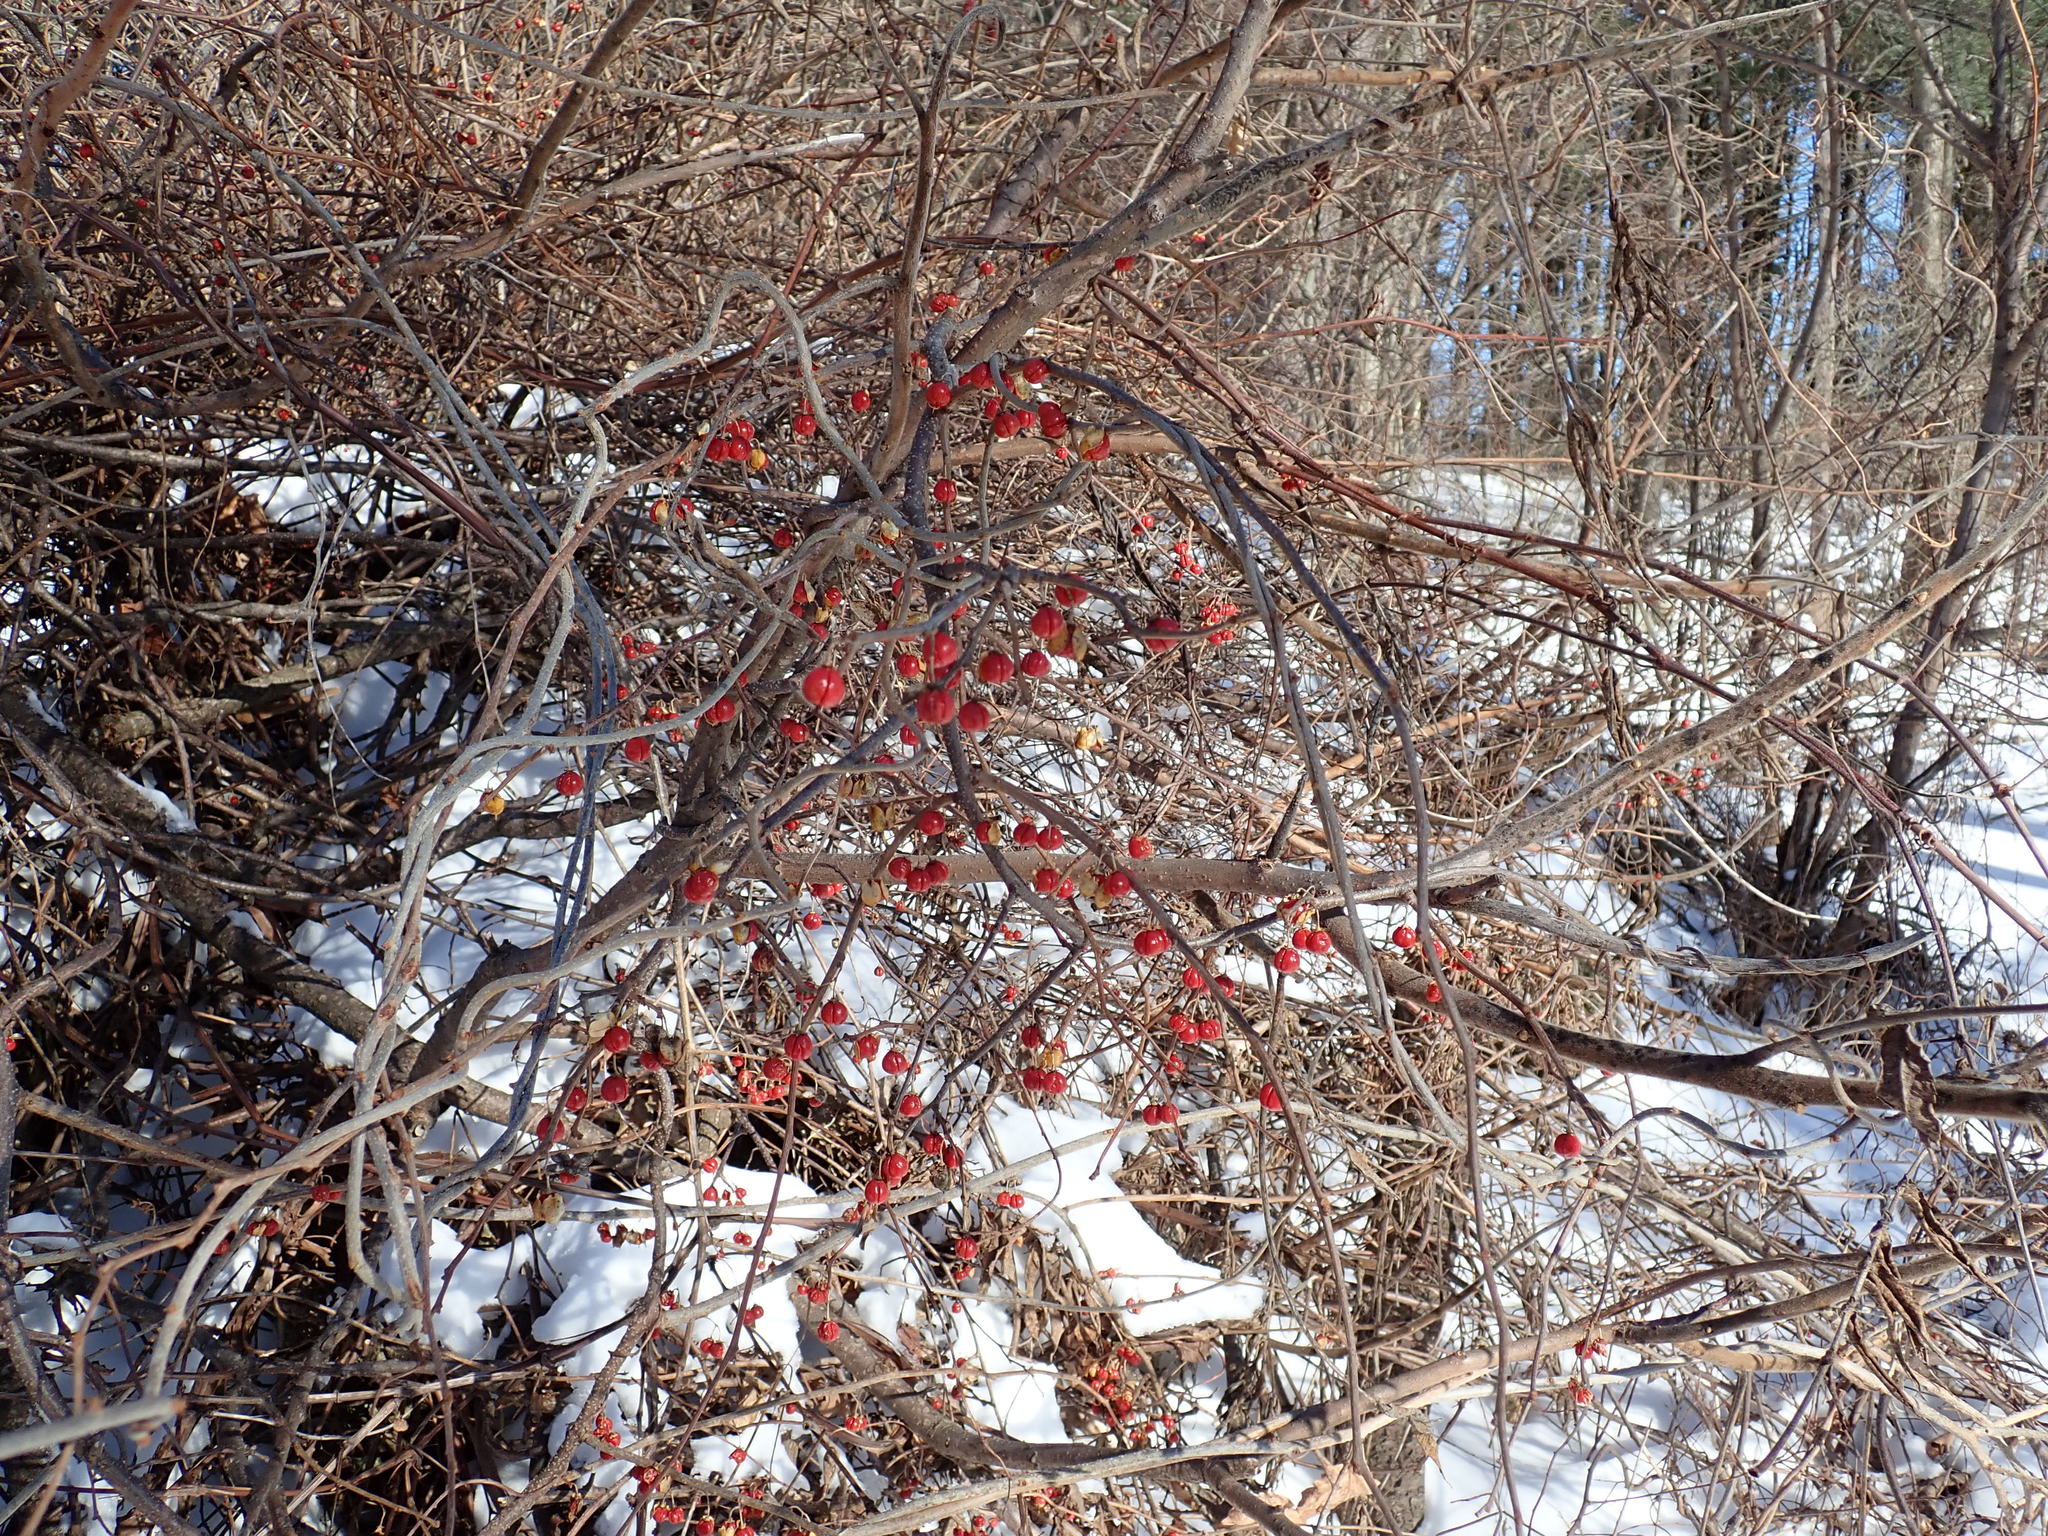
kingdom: Plantae
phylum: Tracheophyta
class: Magnoliopsida
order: Celastrales
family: Celastraceae
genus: Celastrus
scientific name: Celastrus orbiculatus
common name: Oriental bittersweet
